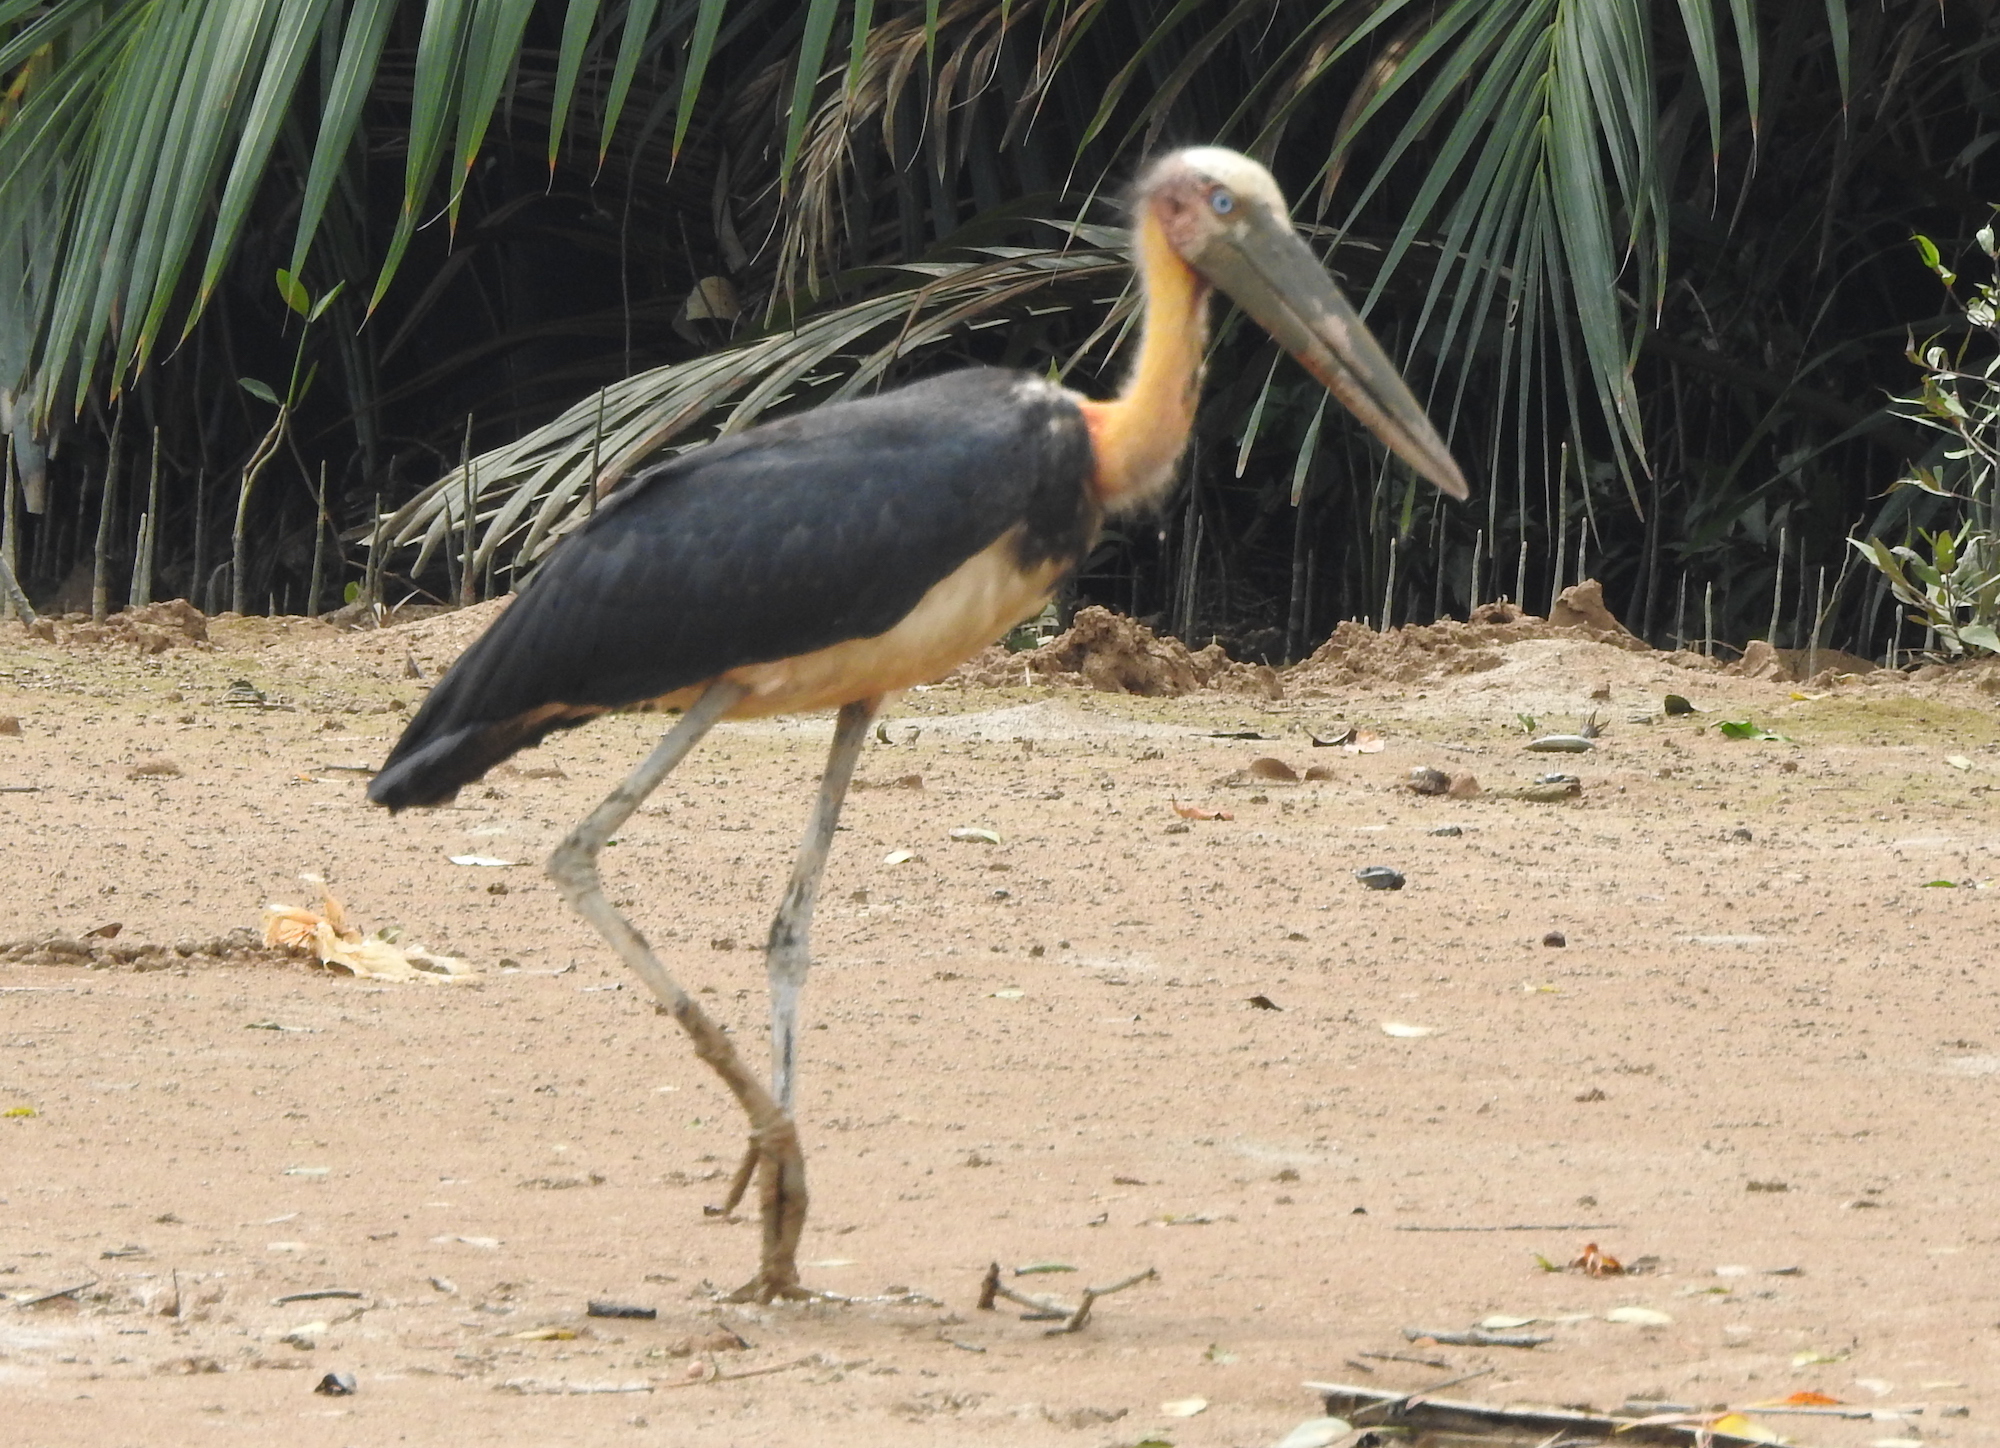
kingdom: Animalia
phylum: Chordata
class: Aves
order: Ciconiiformes
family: Ciconiidae
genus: Leptoptilos
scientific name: Leptoptilos javanicus
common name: Lesser adjutant
